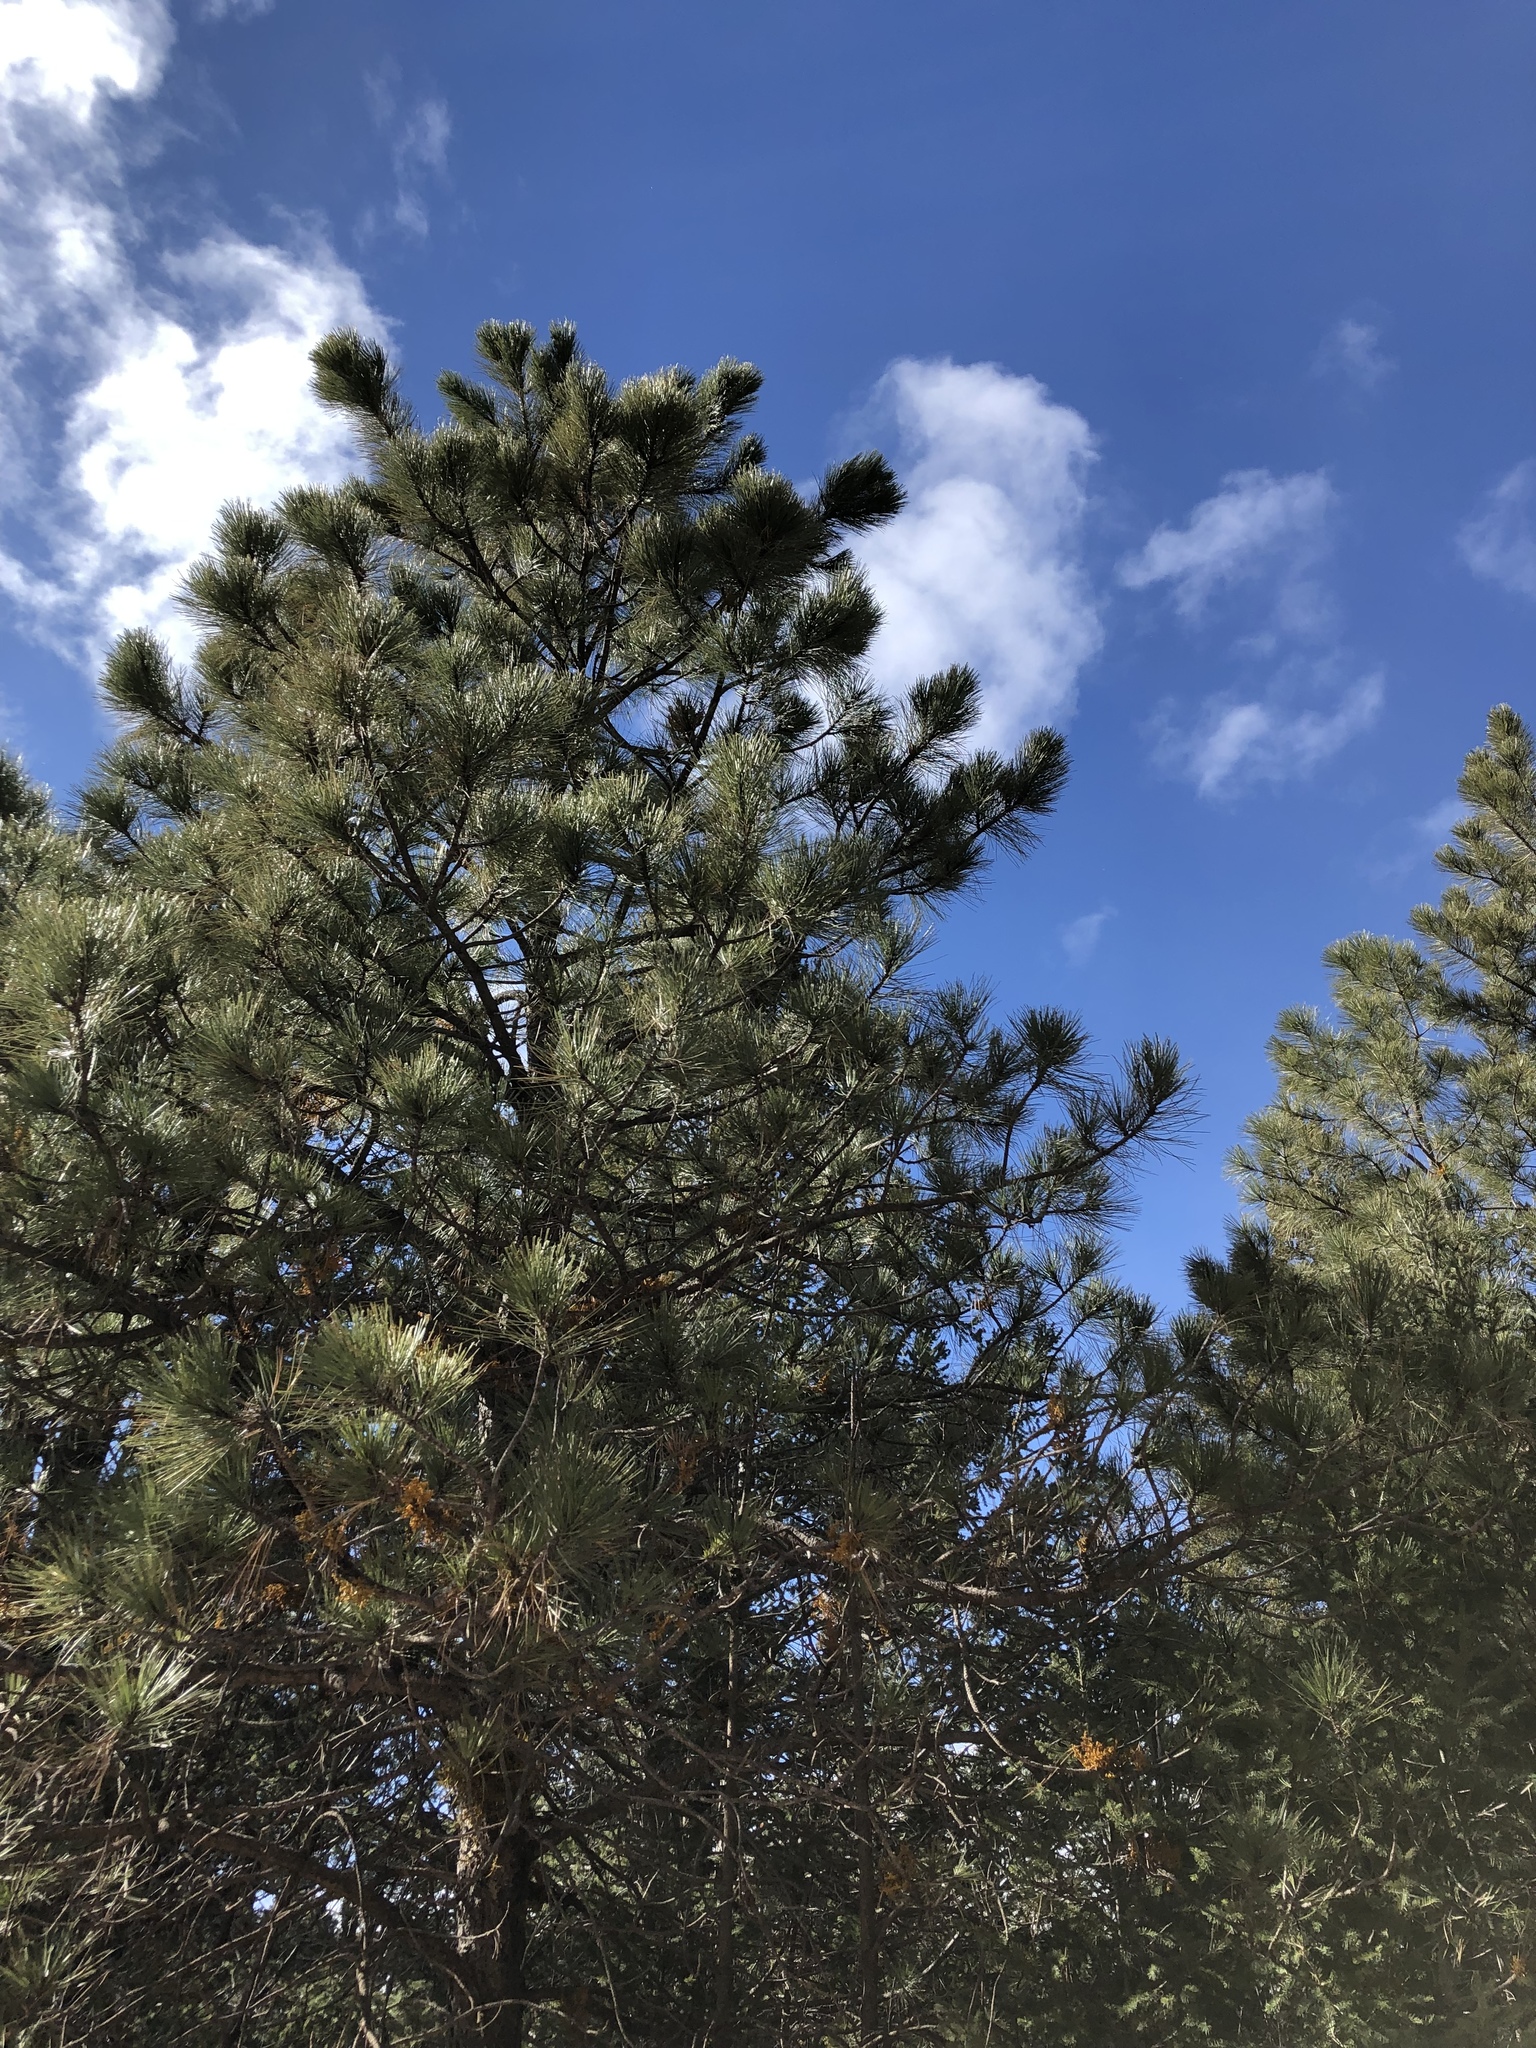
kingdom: Plantae
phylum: Tracheophyta
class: Pinopsida
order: Pinales
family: Pinaceae
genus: Pinus
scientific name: Pinus ponderosa
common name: Western yellow-pine
